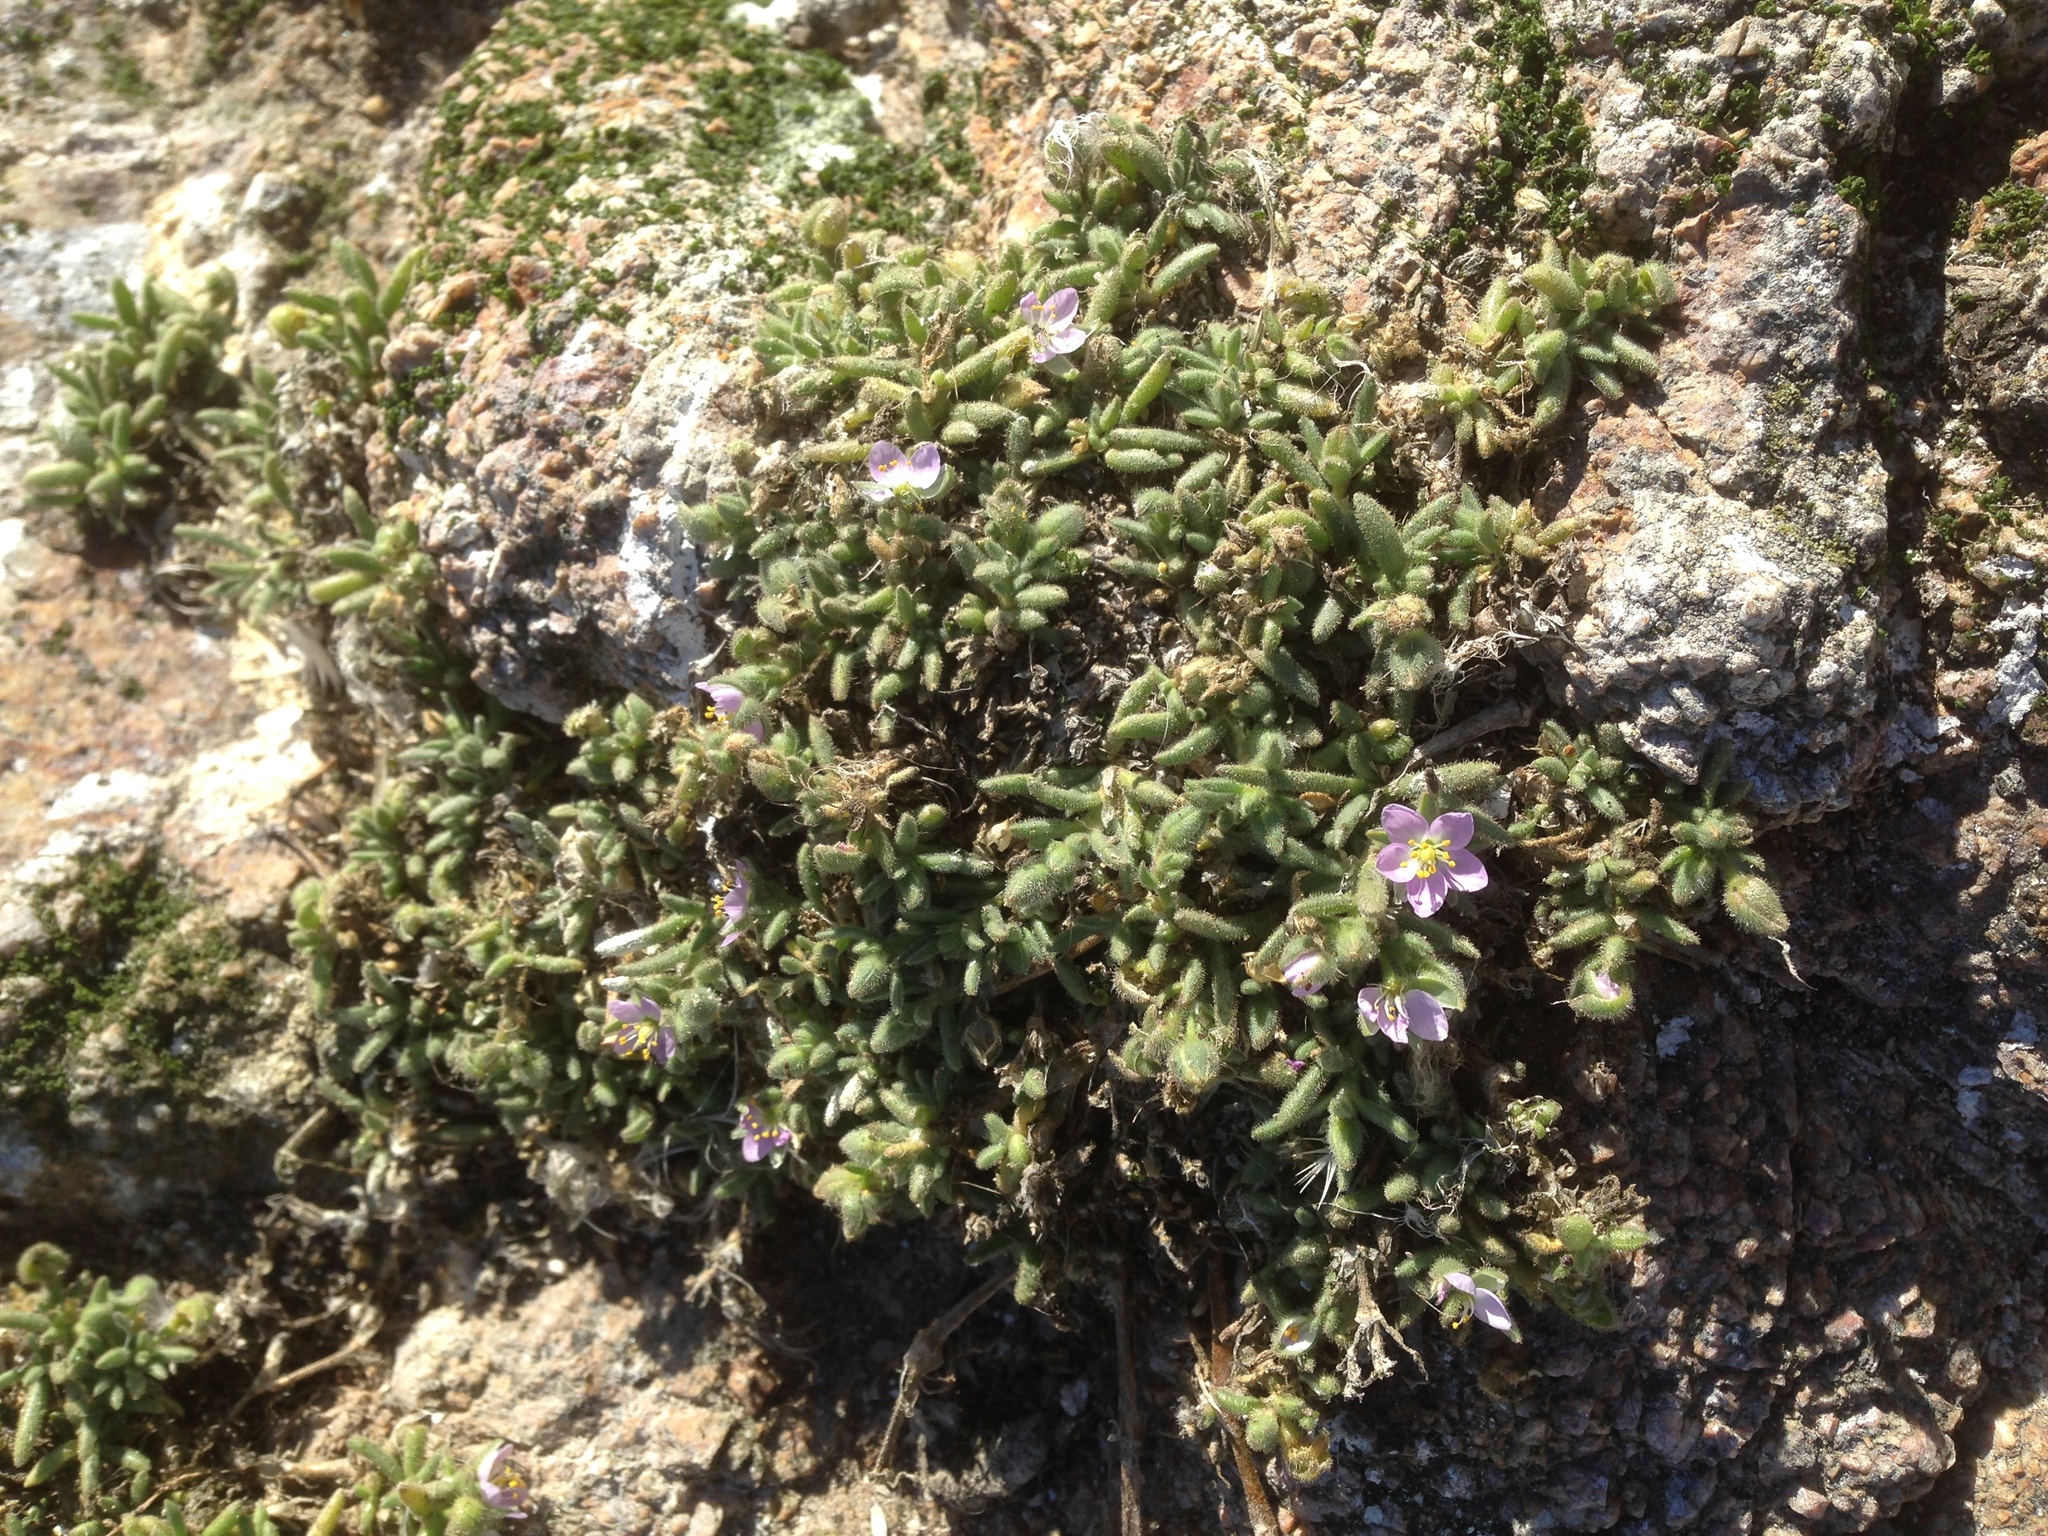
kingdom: Plantae
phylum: Tracheophyta
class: Magnoliopsida
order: Caryophyllales
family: Caryophyllaceae
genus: Spergularia
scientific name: Spergularia macrotheca
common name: Beach sand-spurrey
